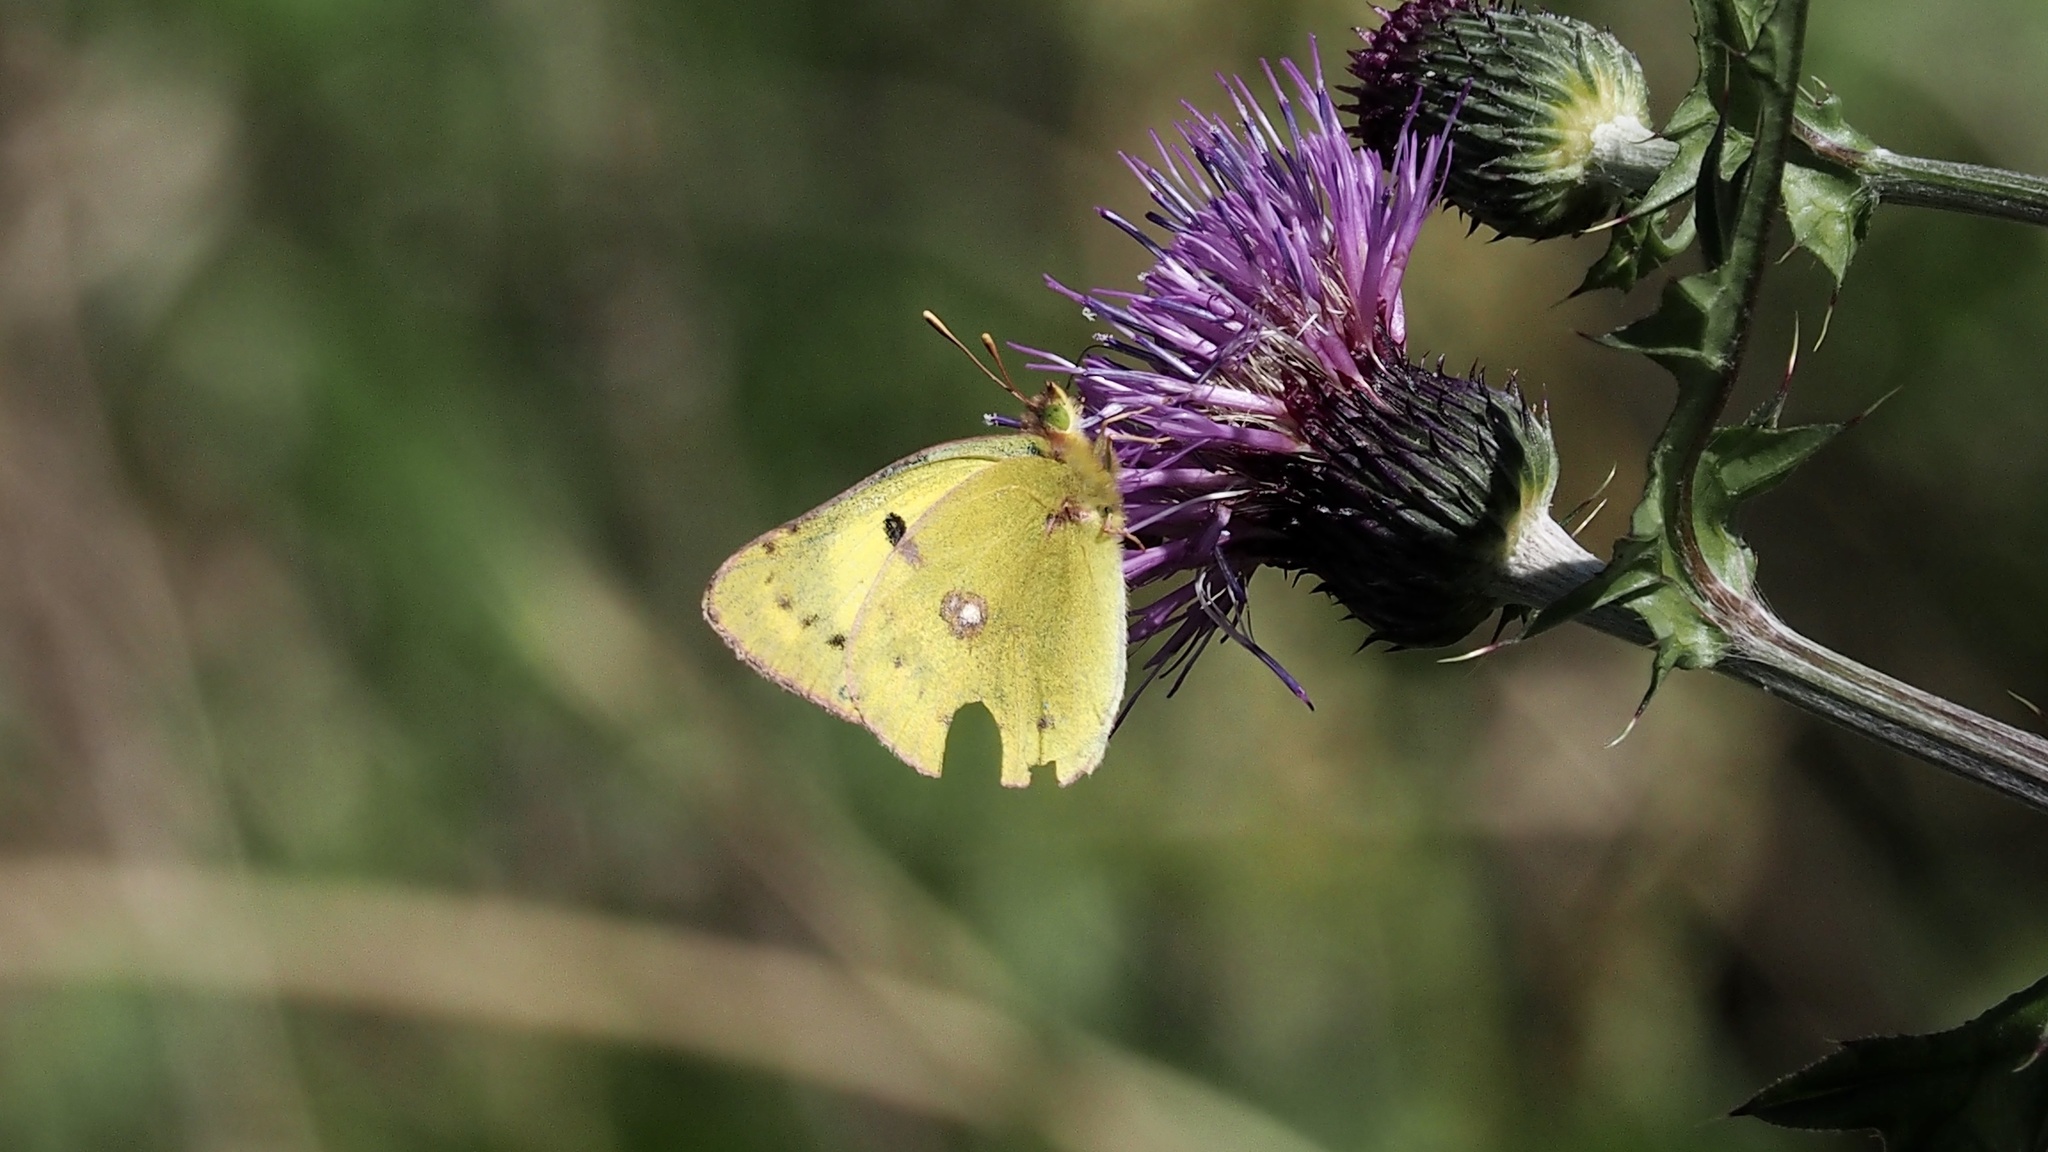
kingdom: Animalia
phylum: Arthropoda
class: Insecta
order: Lepidoptera
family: Pieridae
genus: Colias
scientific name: Colias poliographus
